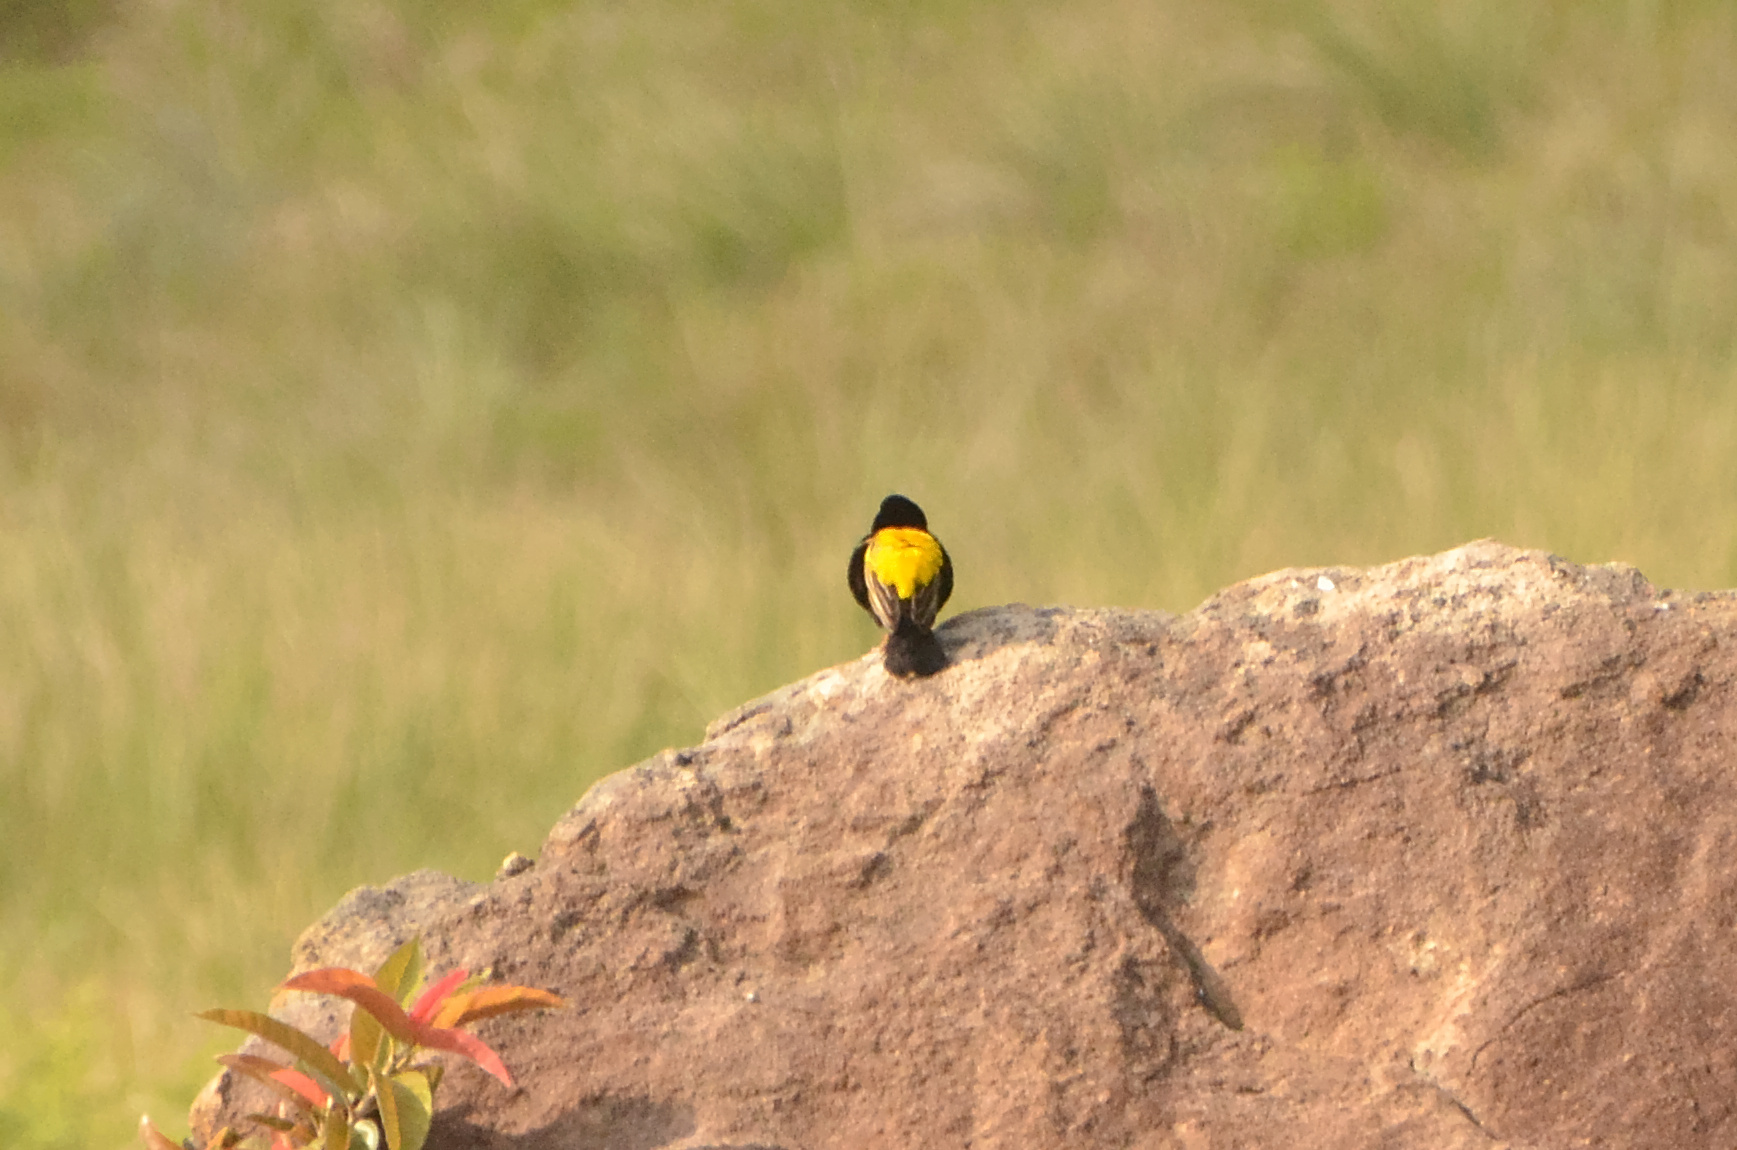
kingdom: Animalia
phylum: Chordata
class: Aves
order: Passeriformes
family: Ploceidae
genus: Euplectes
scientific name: Euplectes capensis
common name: Yellow bishop
